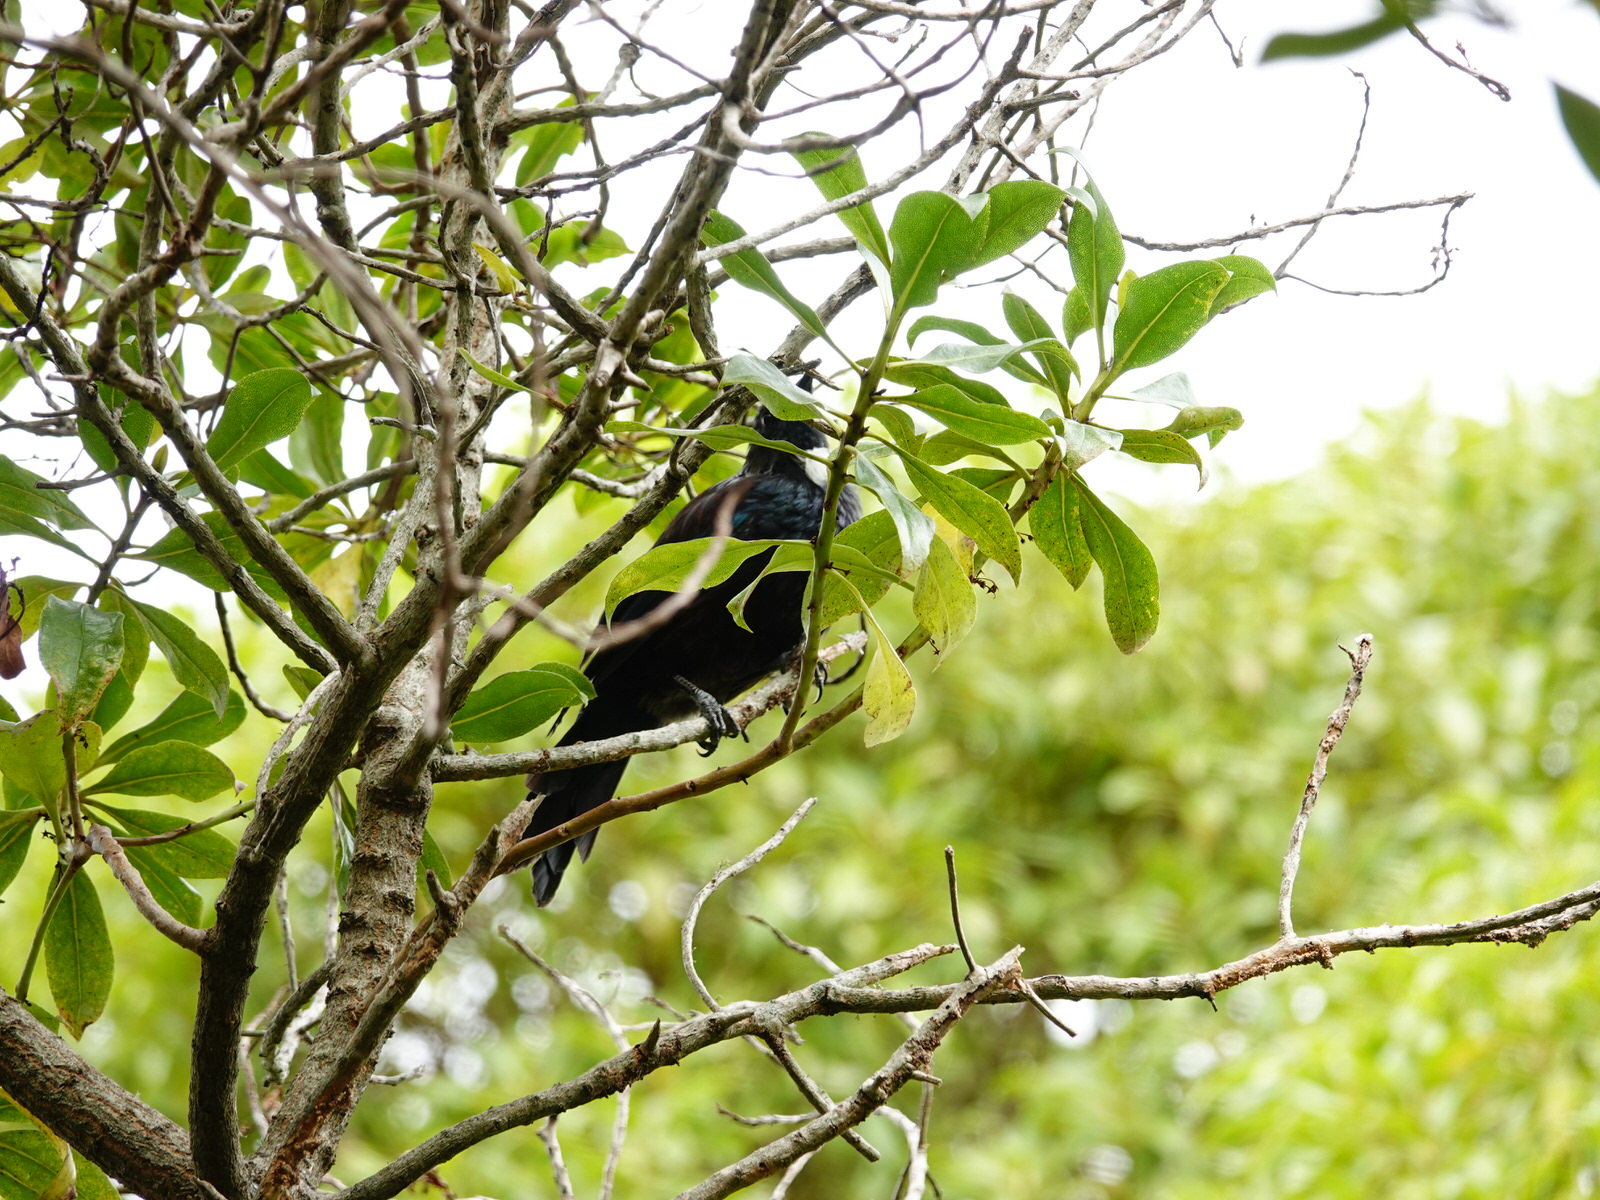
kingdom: Animalia
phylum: Chordata
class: Aves
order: Passeriformes
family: Meliphagidae
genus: Prosthemadera
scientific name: Prosthemadera novaeseelandiae
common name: Tui
